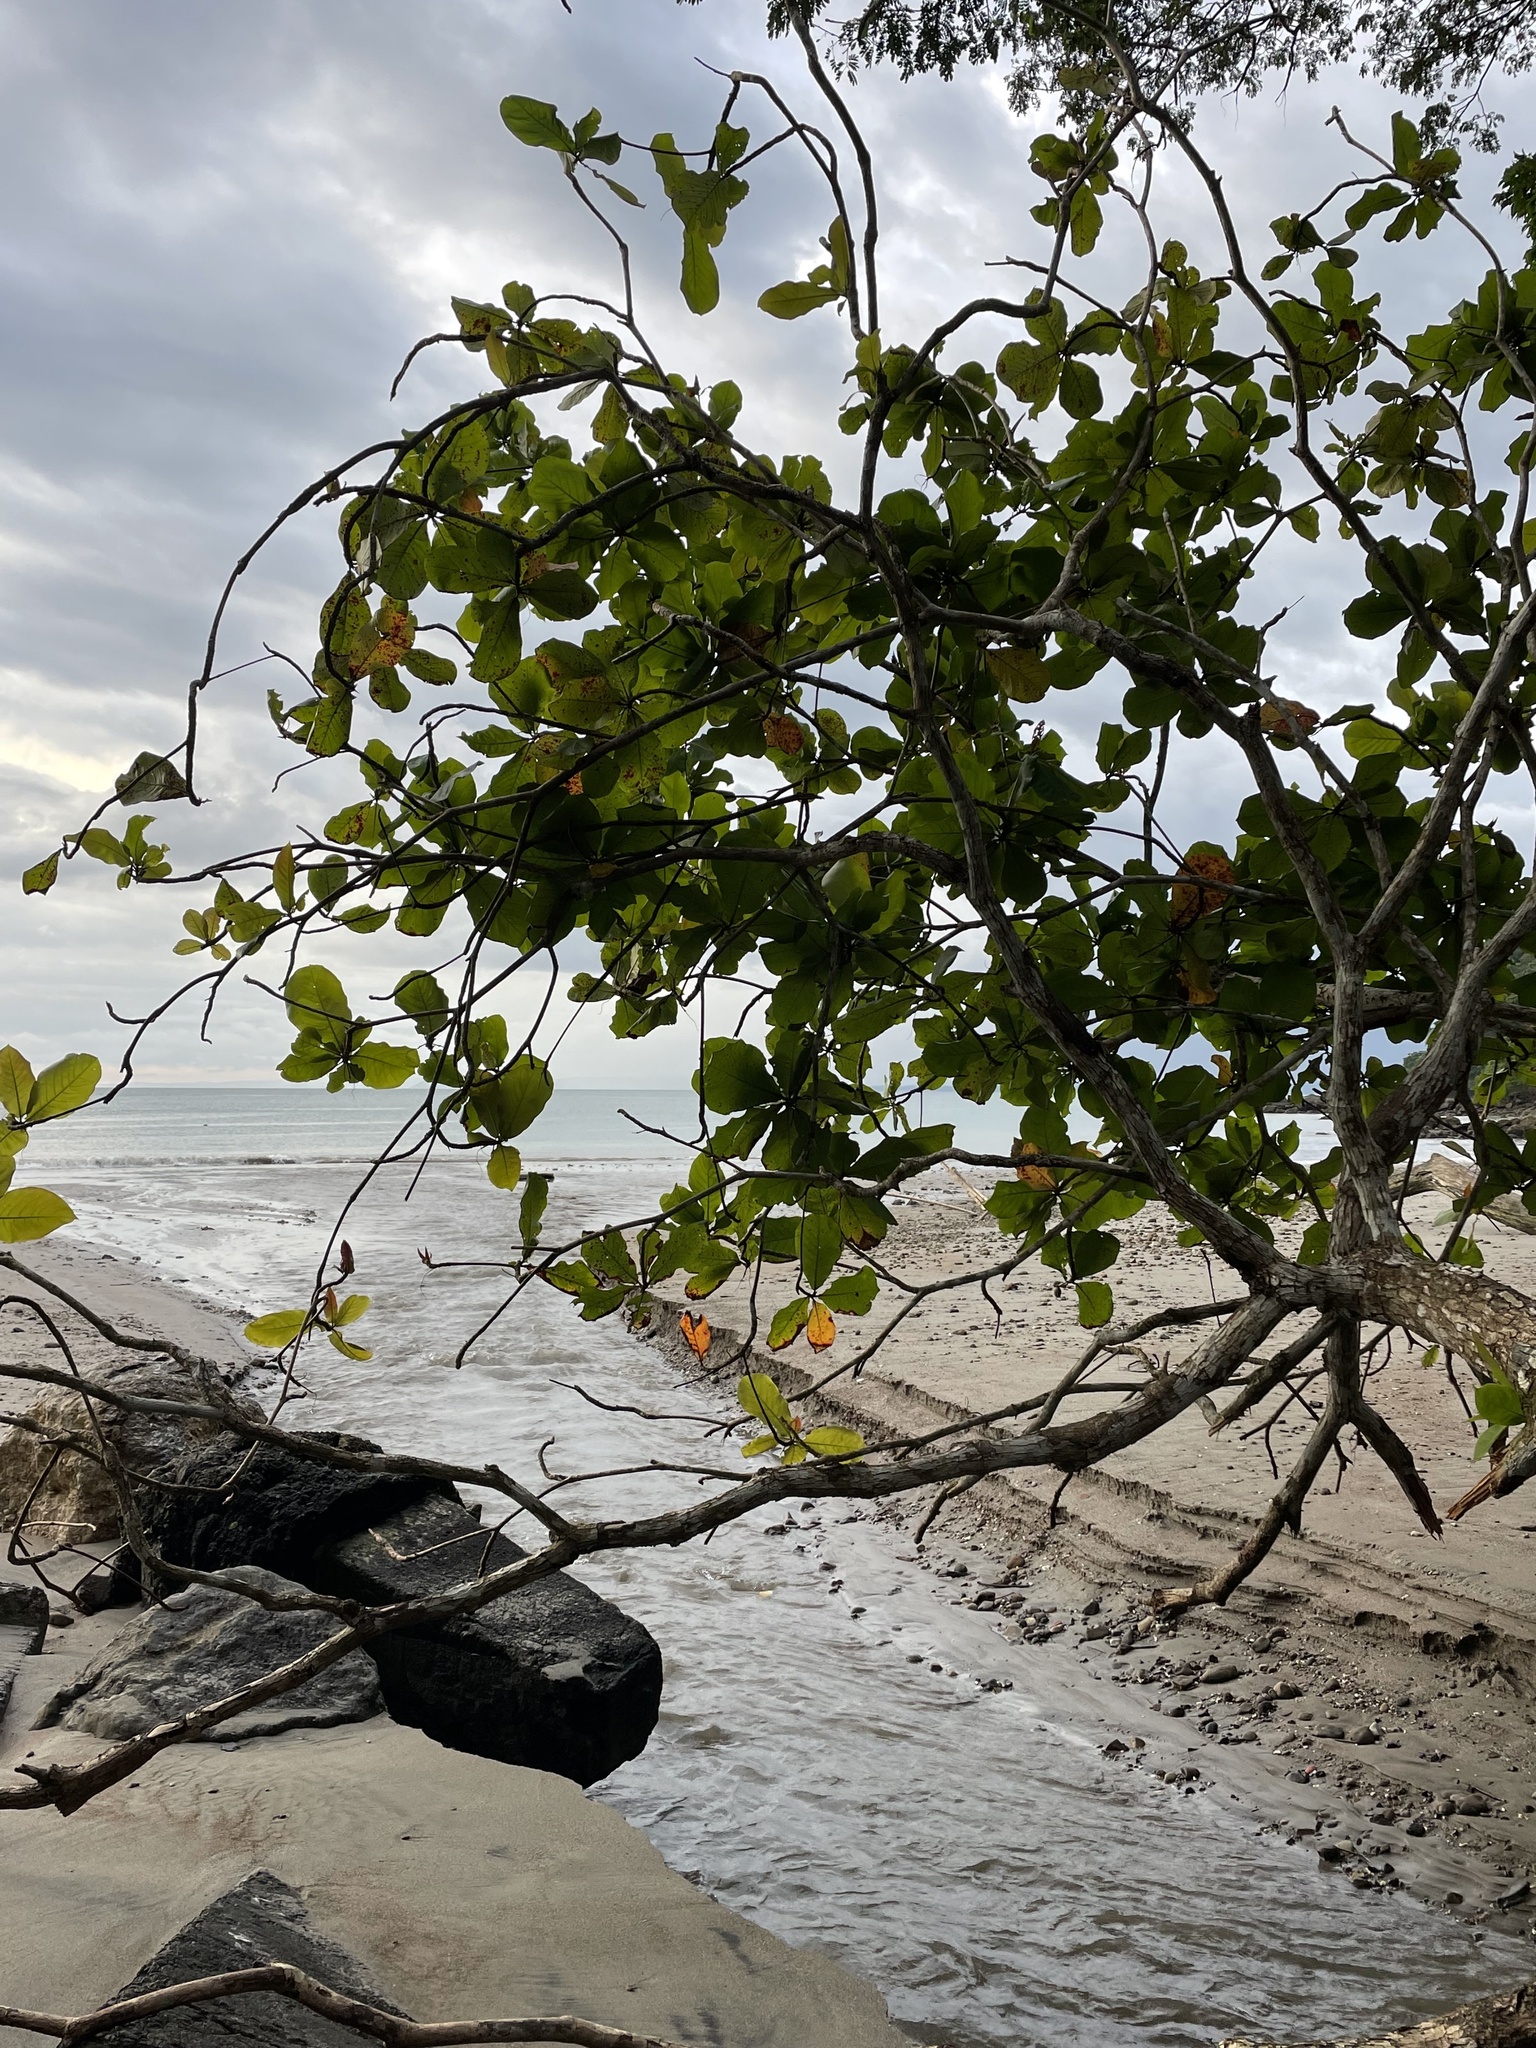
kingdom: Plantae
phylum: Tracheophyta
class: Magnoliopsida
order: Myrtales
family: Combretaceae
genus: Terminalia
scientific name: Terminalia catappa
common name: Tropical almond
